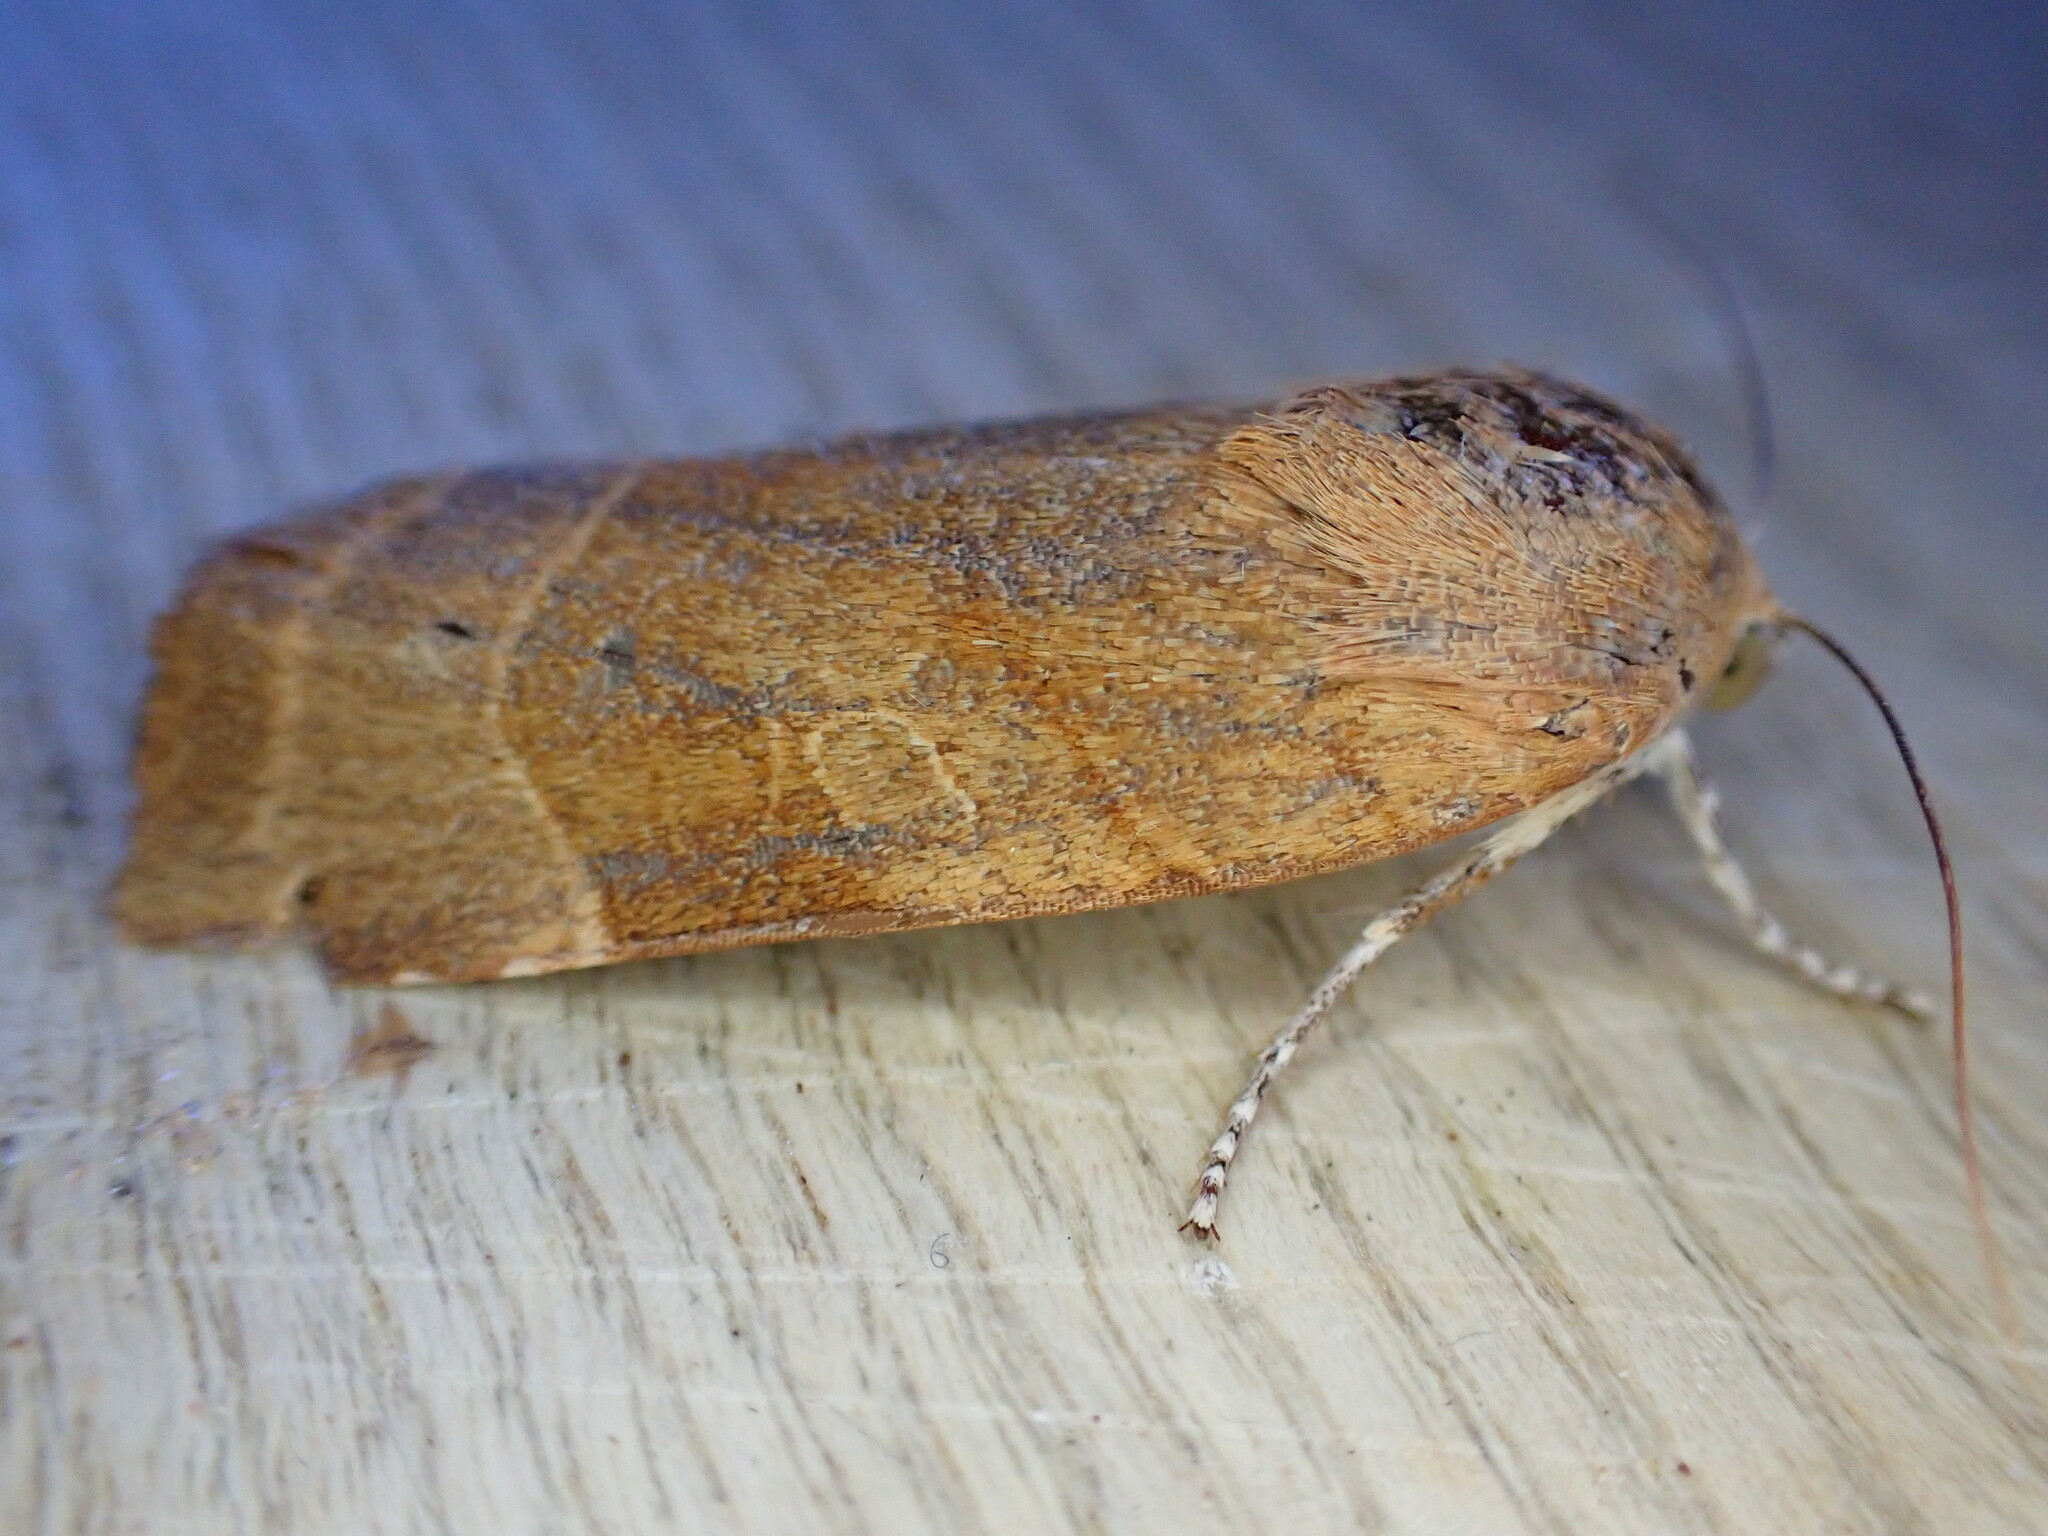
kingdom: Animalia
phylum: Arthropoda
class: Insecta
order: Lepidoptera
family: Noctuidae
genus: Noctua
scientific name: Noctua fimbriata
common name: Broad-bordered yellow underwing
